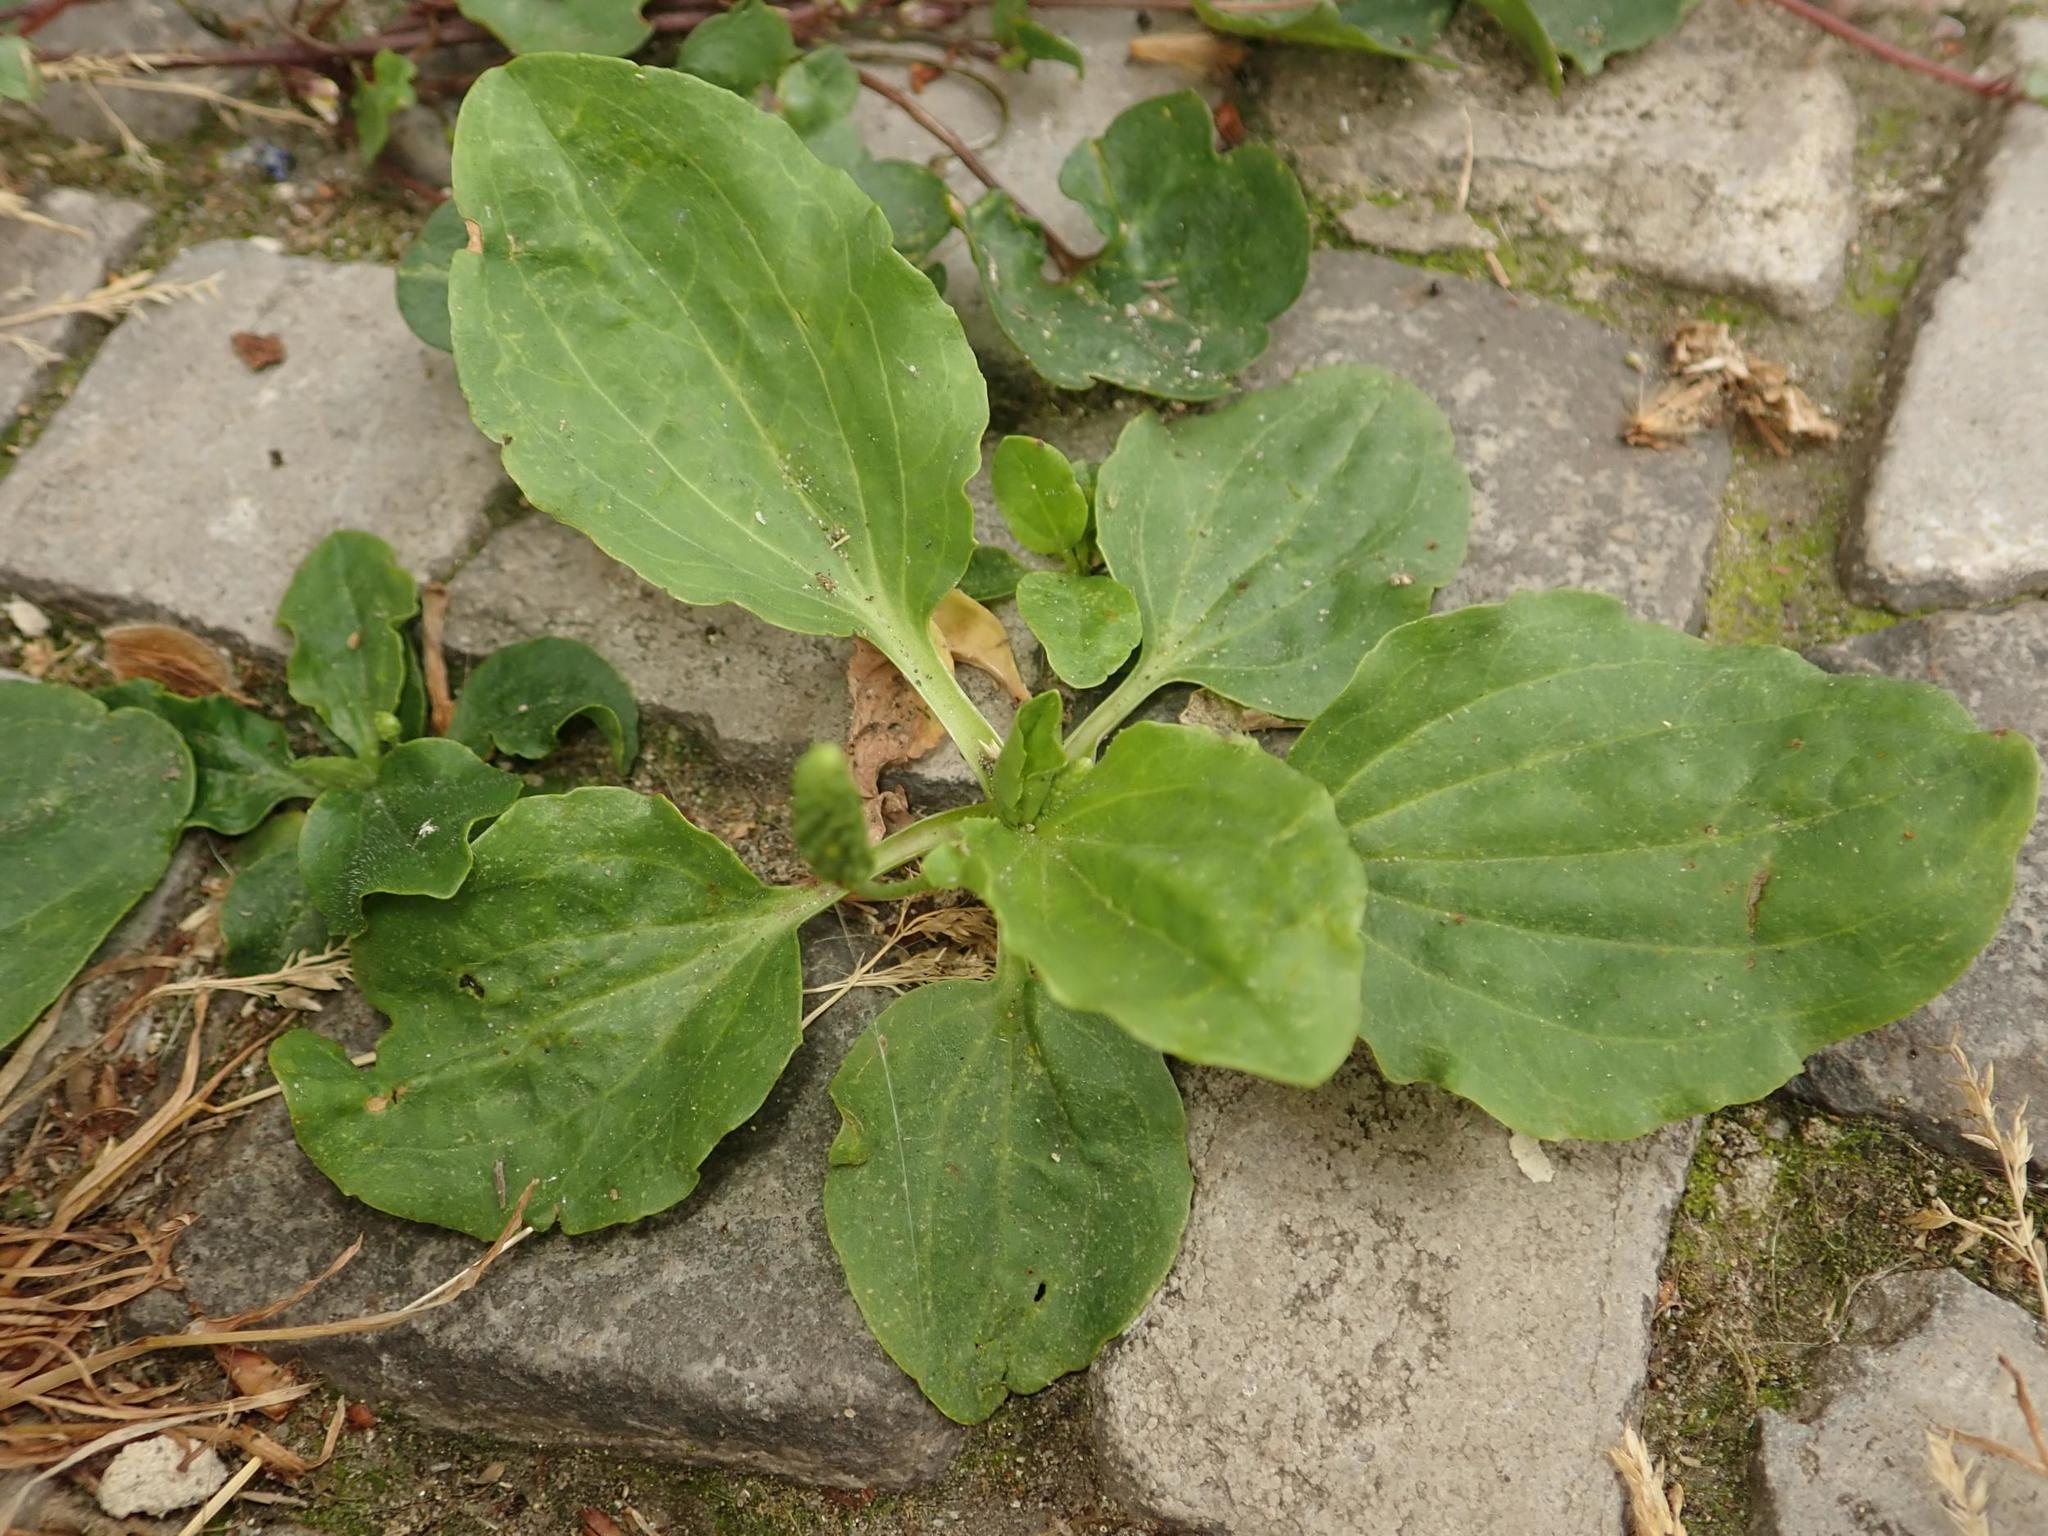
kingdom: Plantae
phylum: Tracheophyta
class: Magnoliopsida
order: Lamiales
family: Plantaginaceae
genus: Plantago
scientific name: Plantago major
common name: Common plantain
